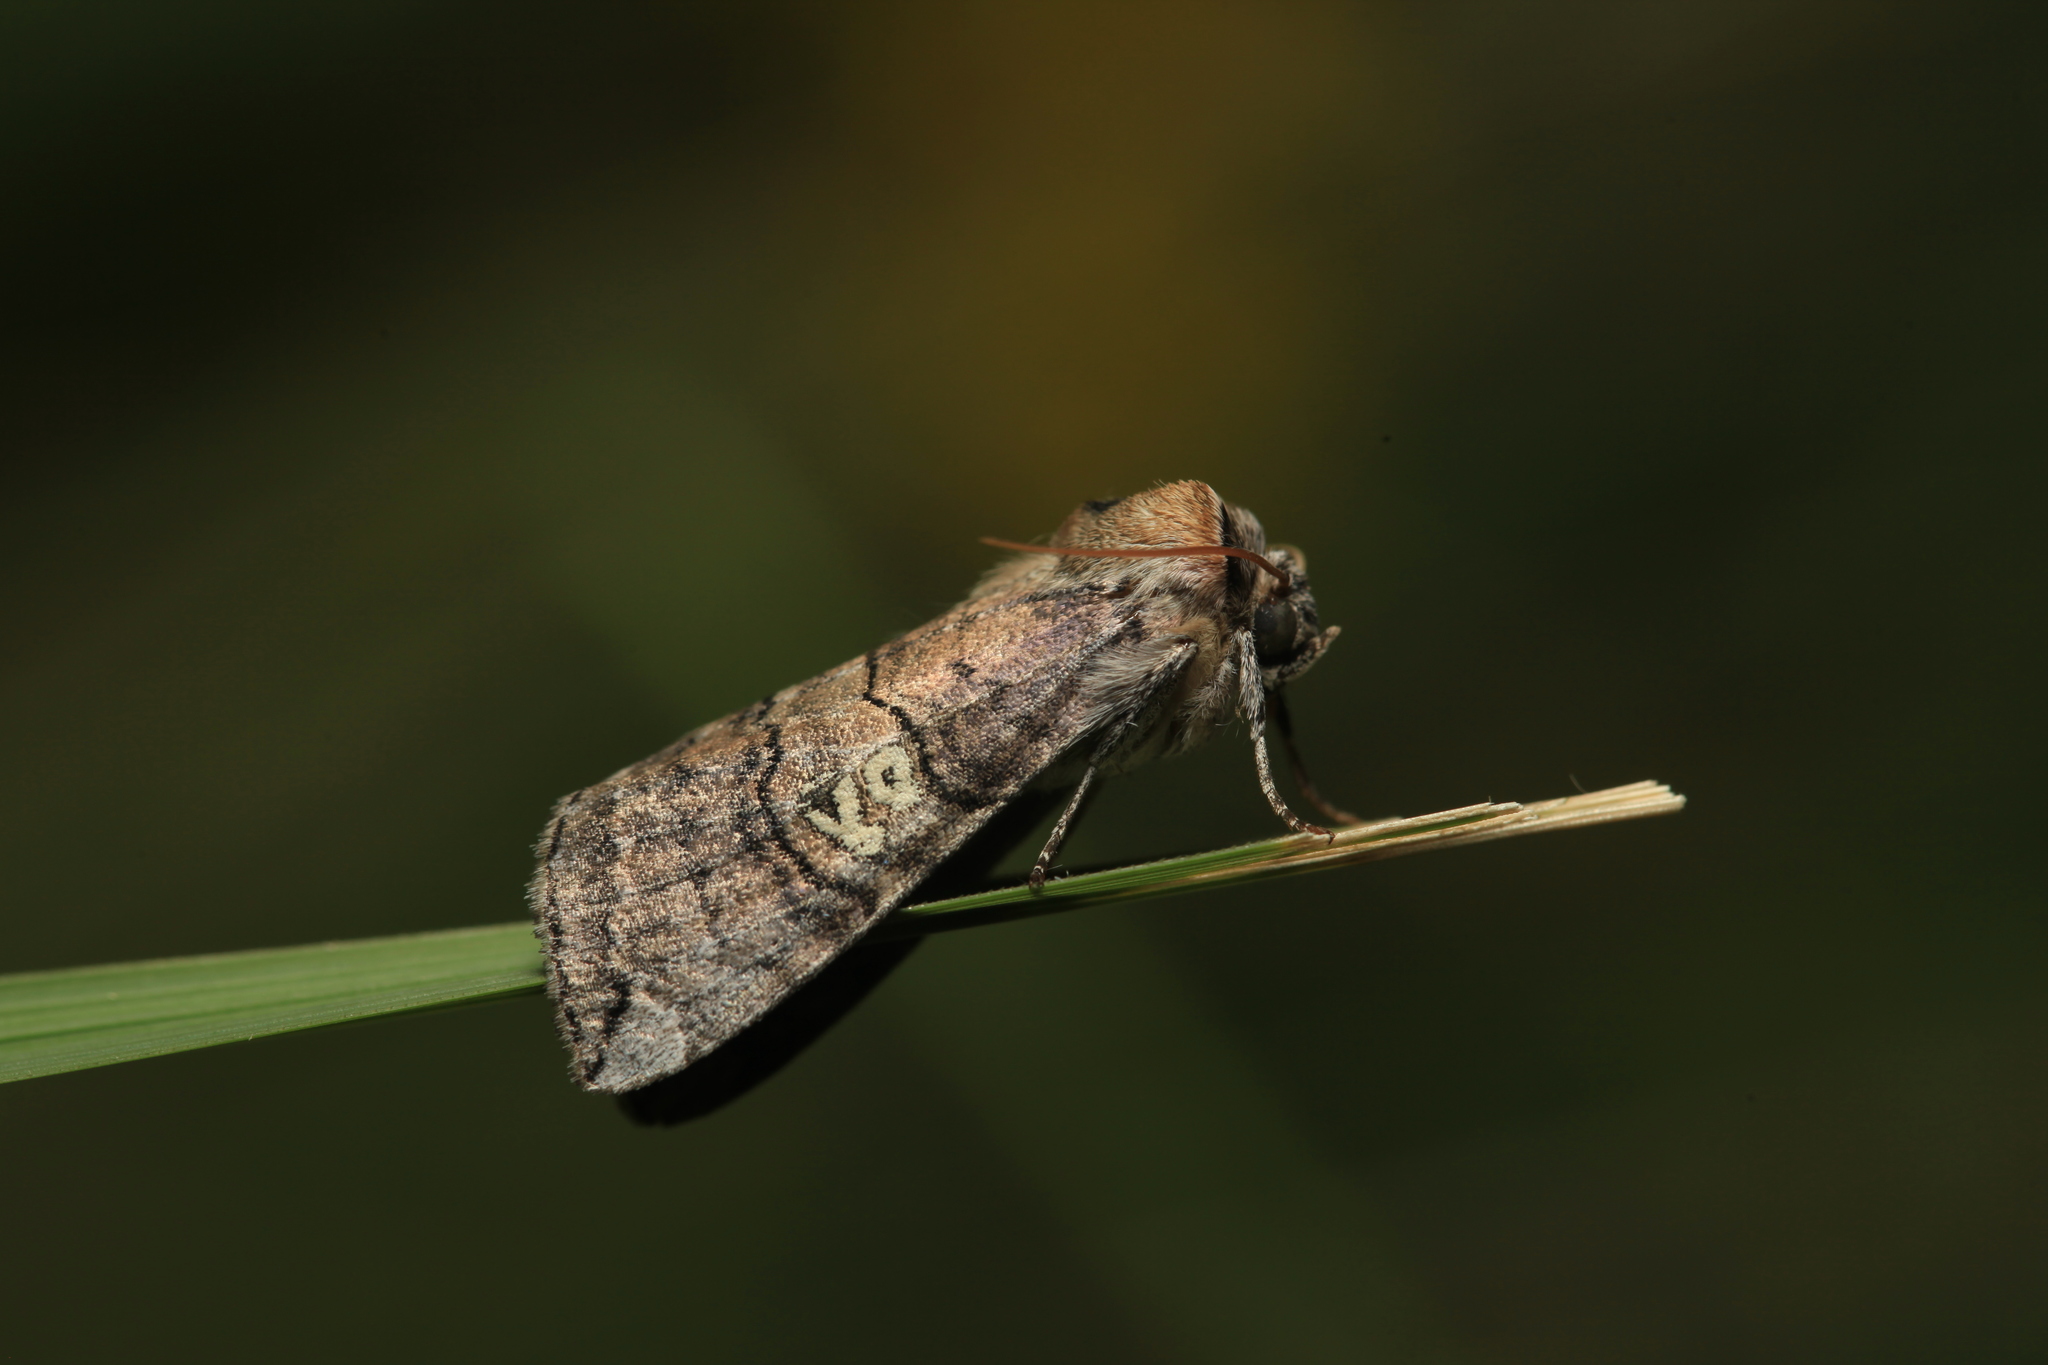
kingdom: Animalia
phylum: Arthropoda
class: Insecta
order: Lepidoptera
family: Drepanidae
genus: Tethea
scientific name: Tethea ocularis
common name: Figure of eighty
